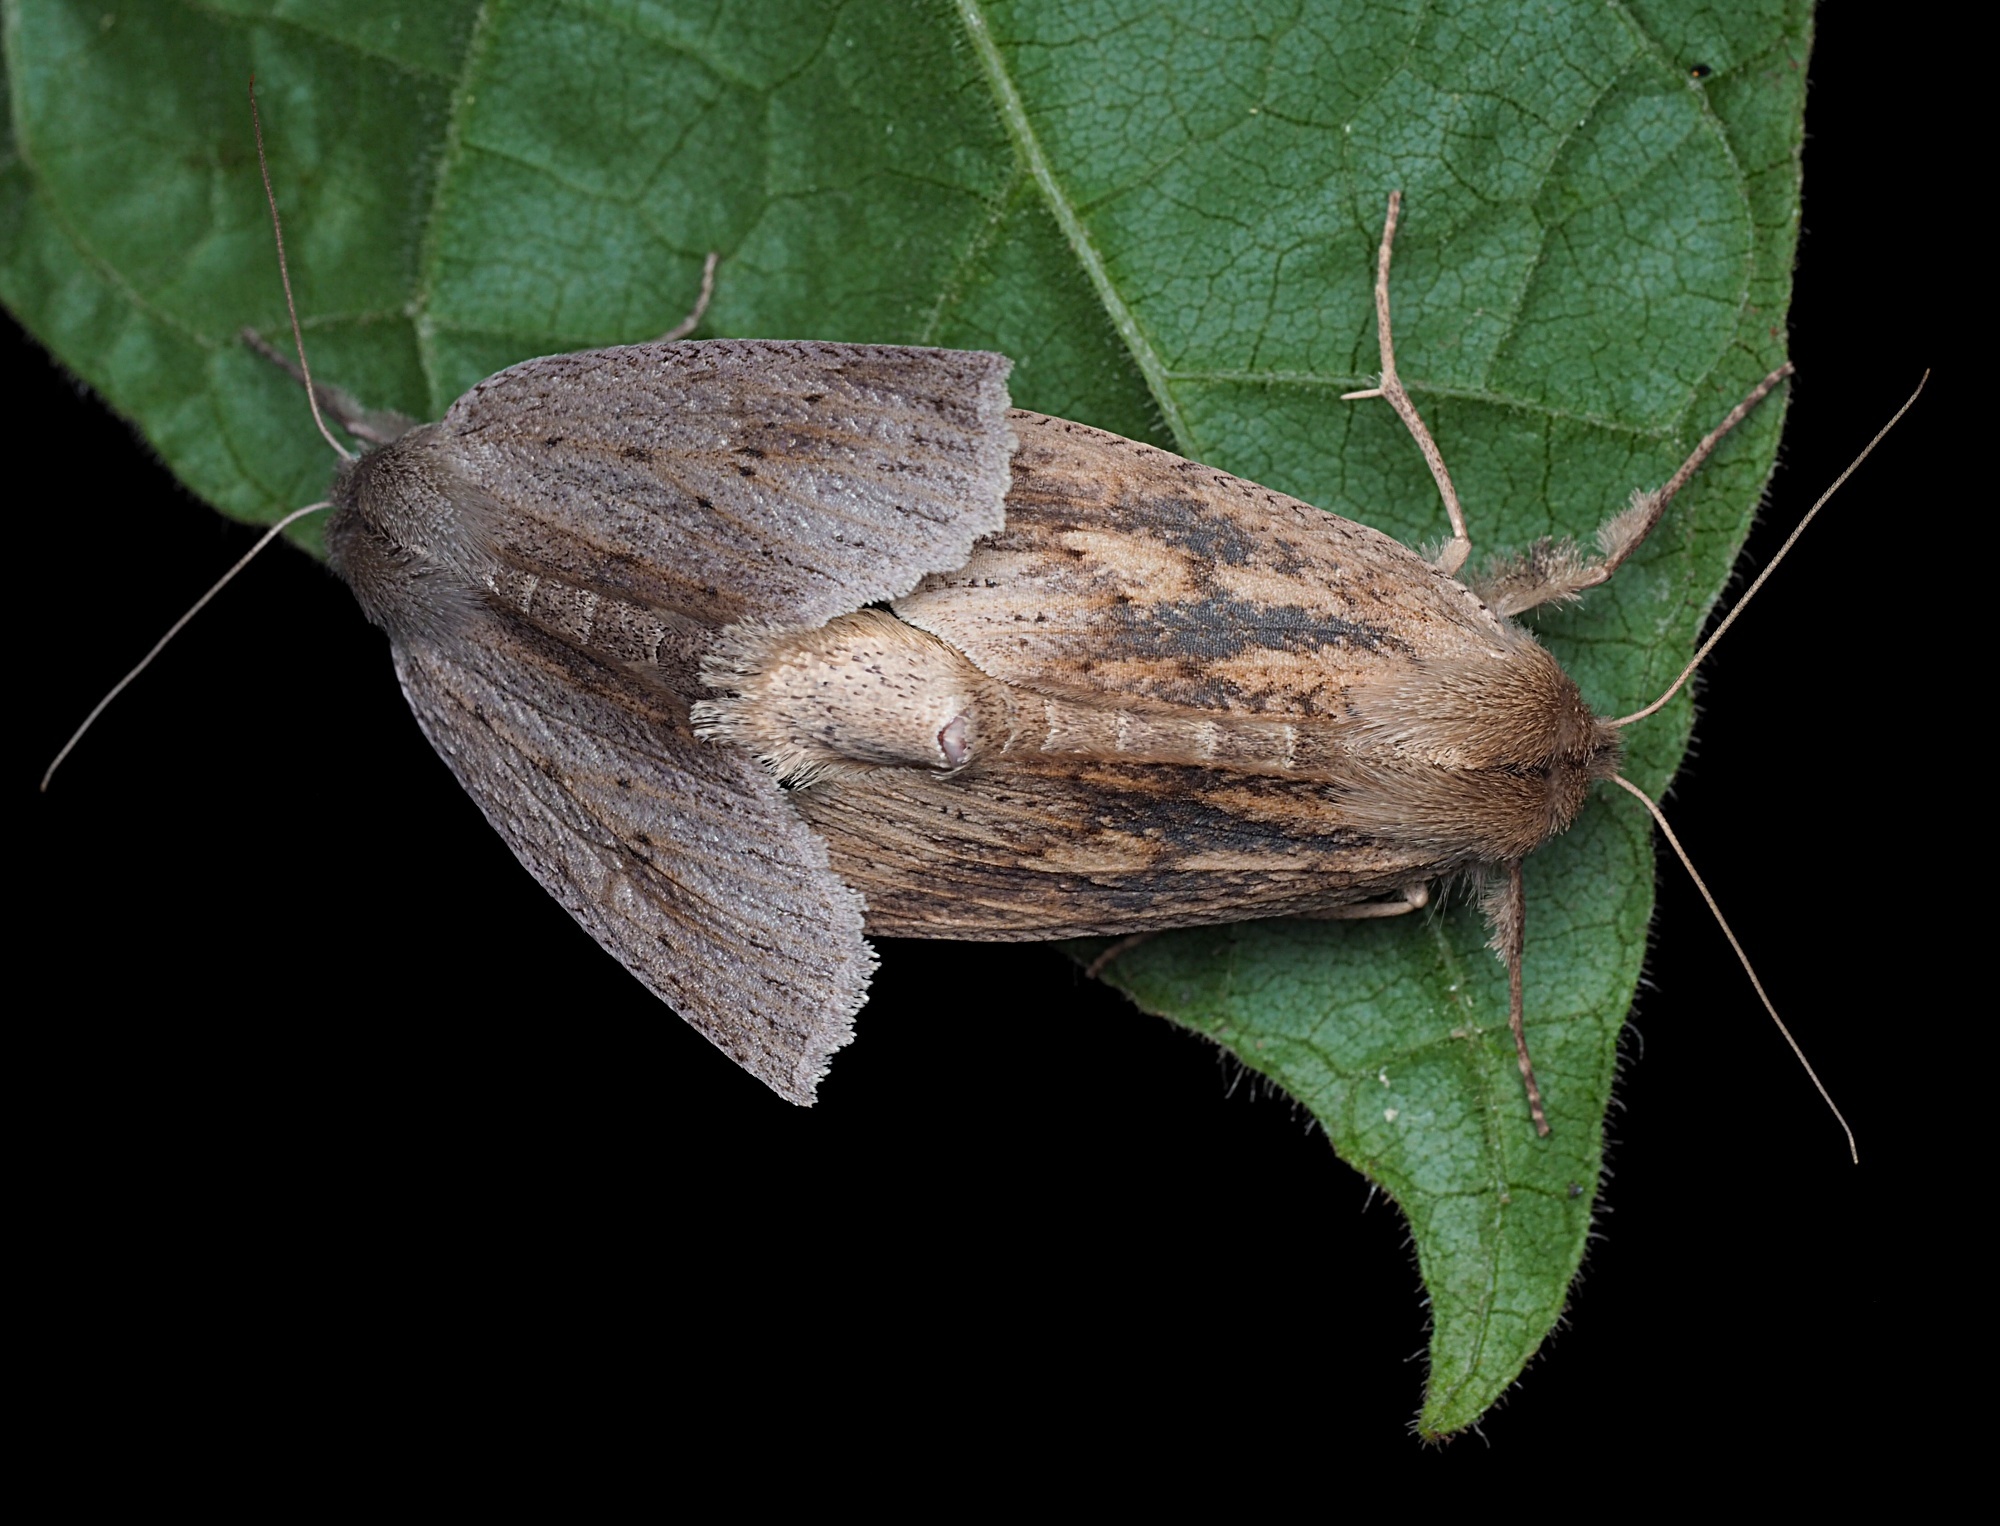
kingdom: Animalia
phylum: Arthropoda
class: Insecta
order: Lepidoptera
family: Geometridae
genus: Declana
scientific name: Declana leptomera
